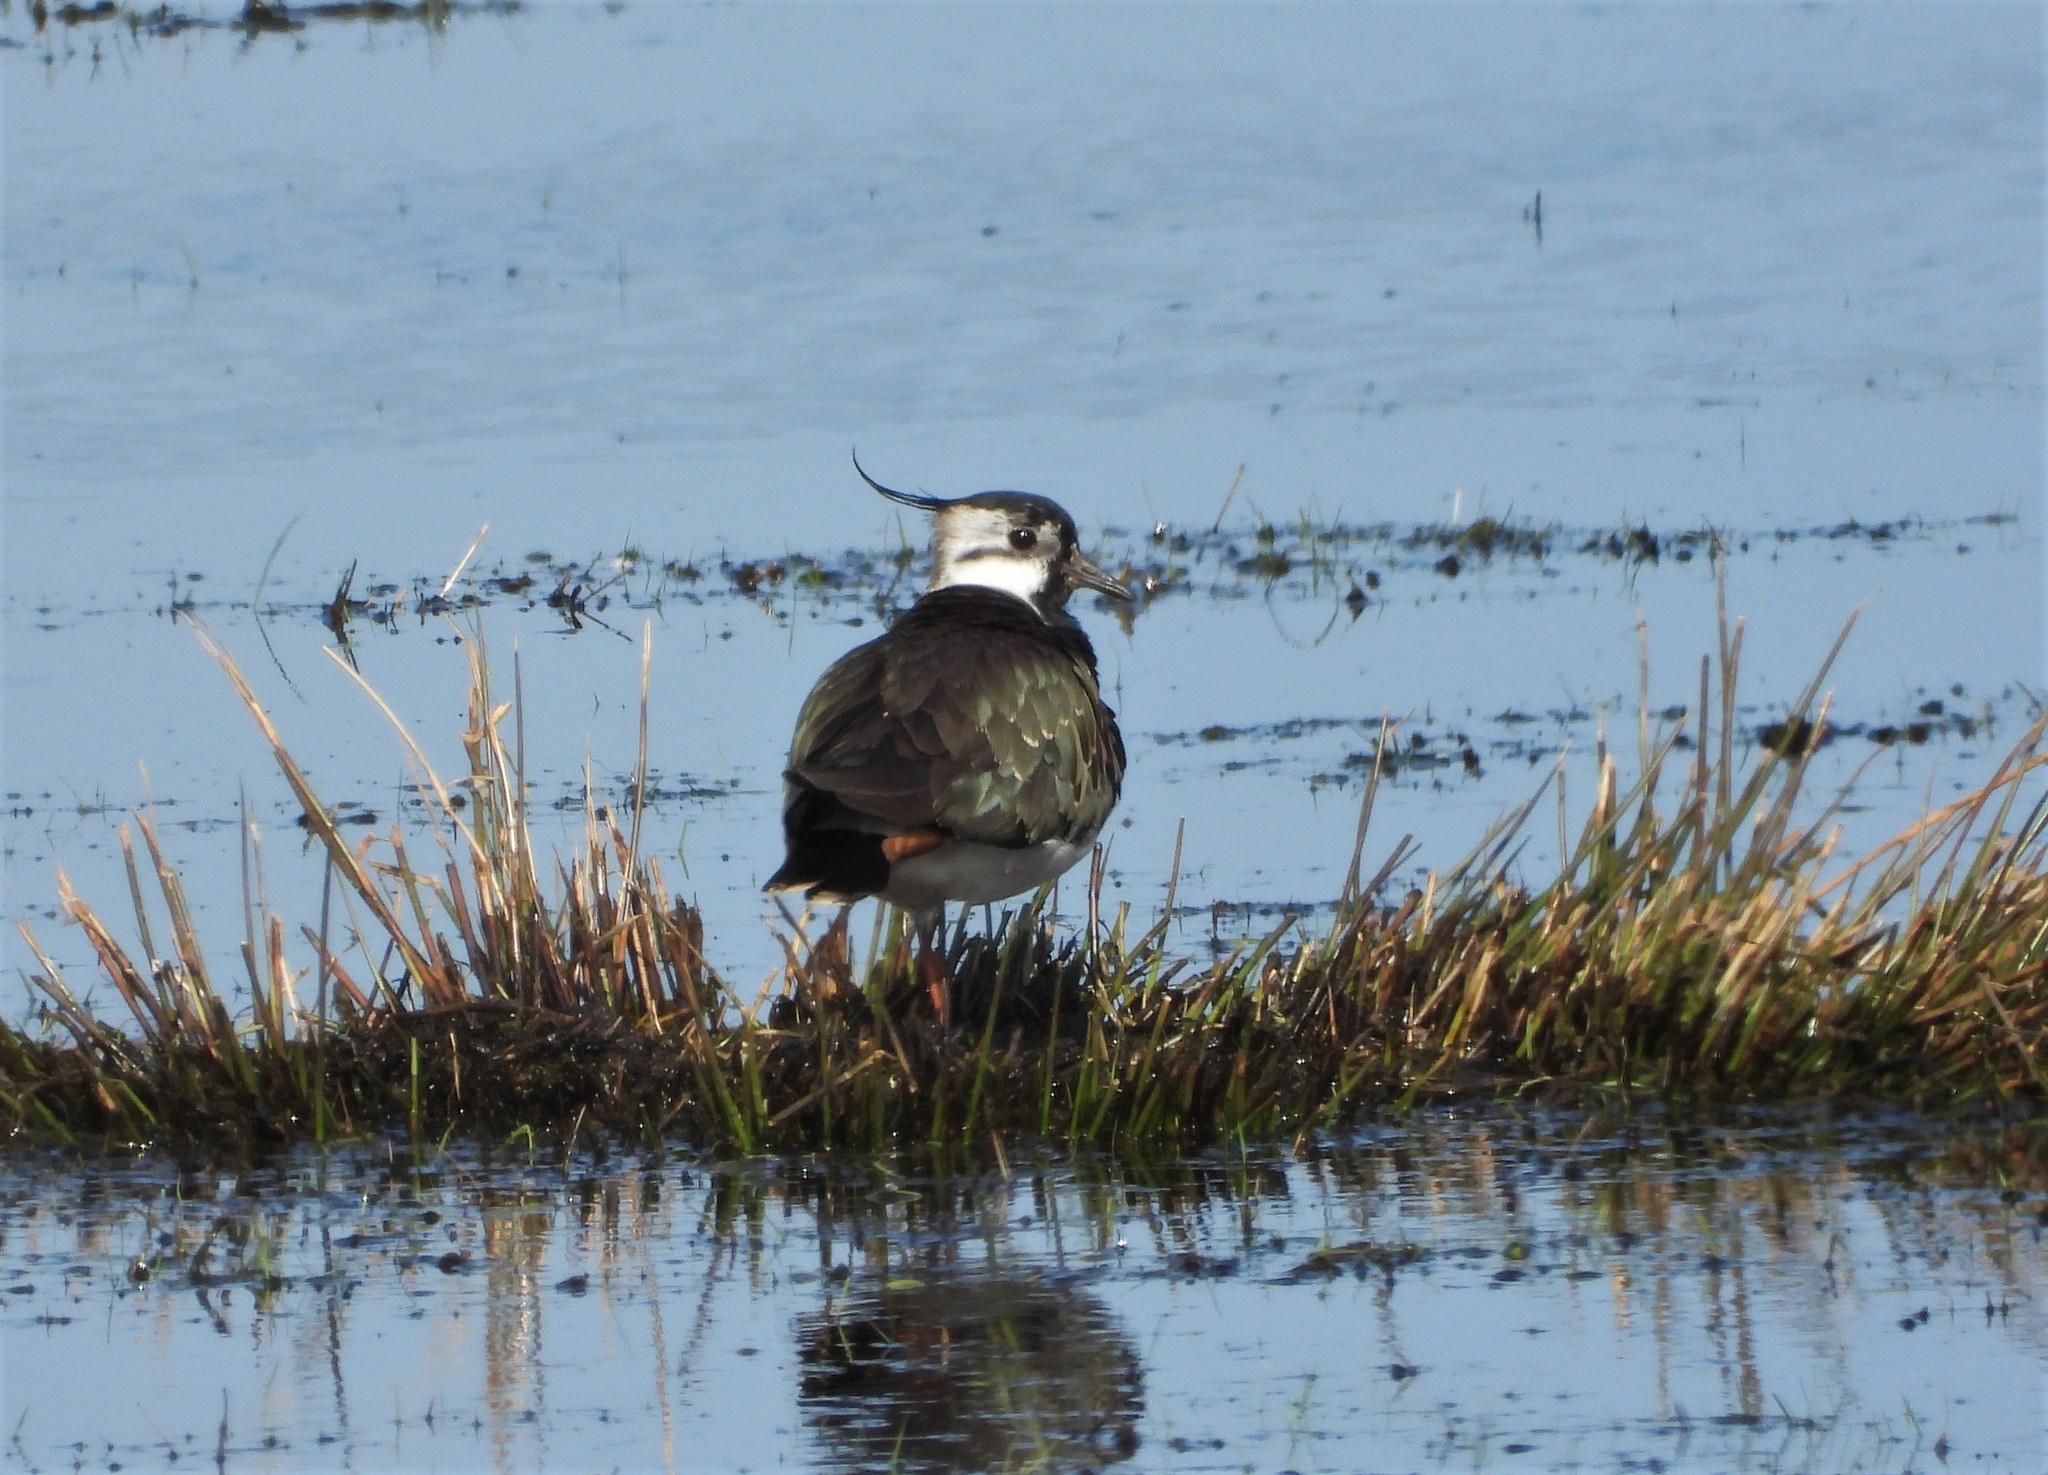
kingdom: Animalia
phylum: Chordata
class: Aves
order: Charadriiformes
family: Charadriidae
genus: Vanellus
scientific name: Vanellus vanellus
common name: Northern lapwing
